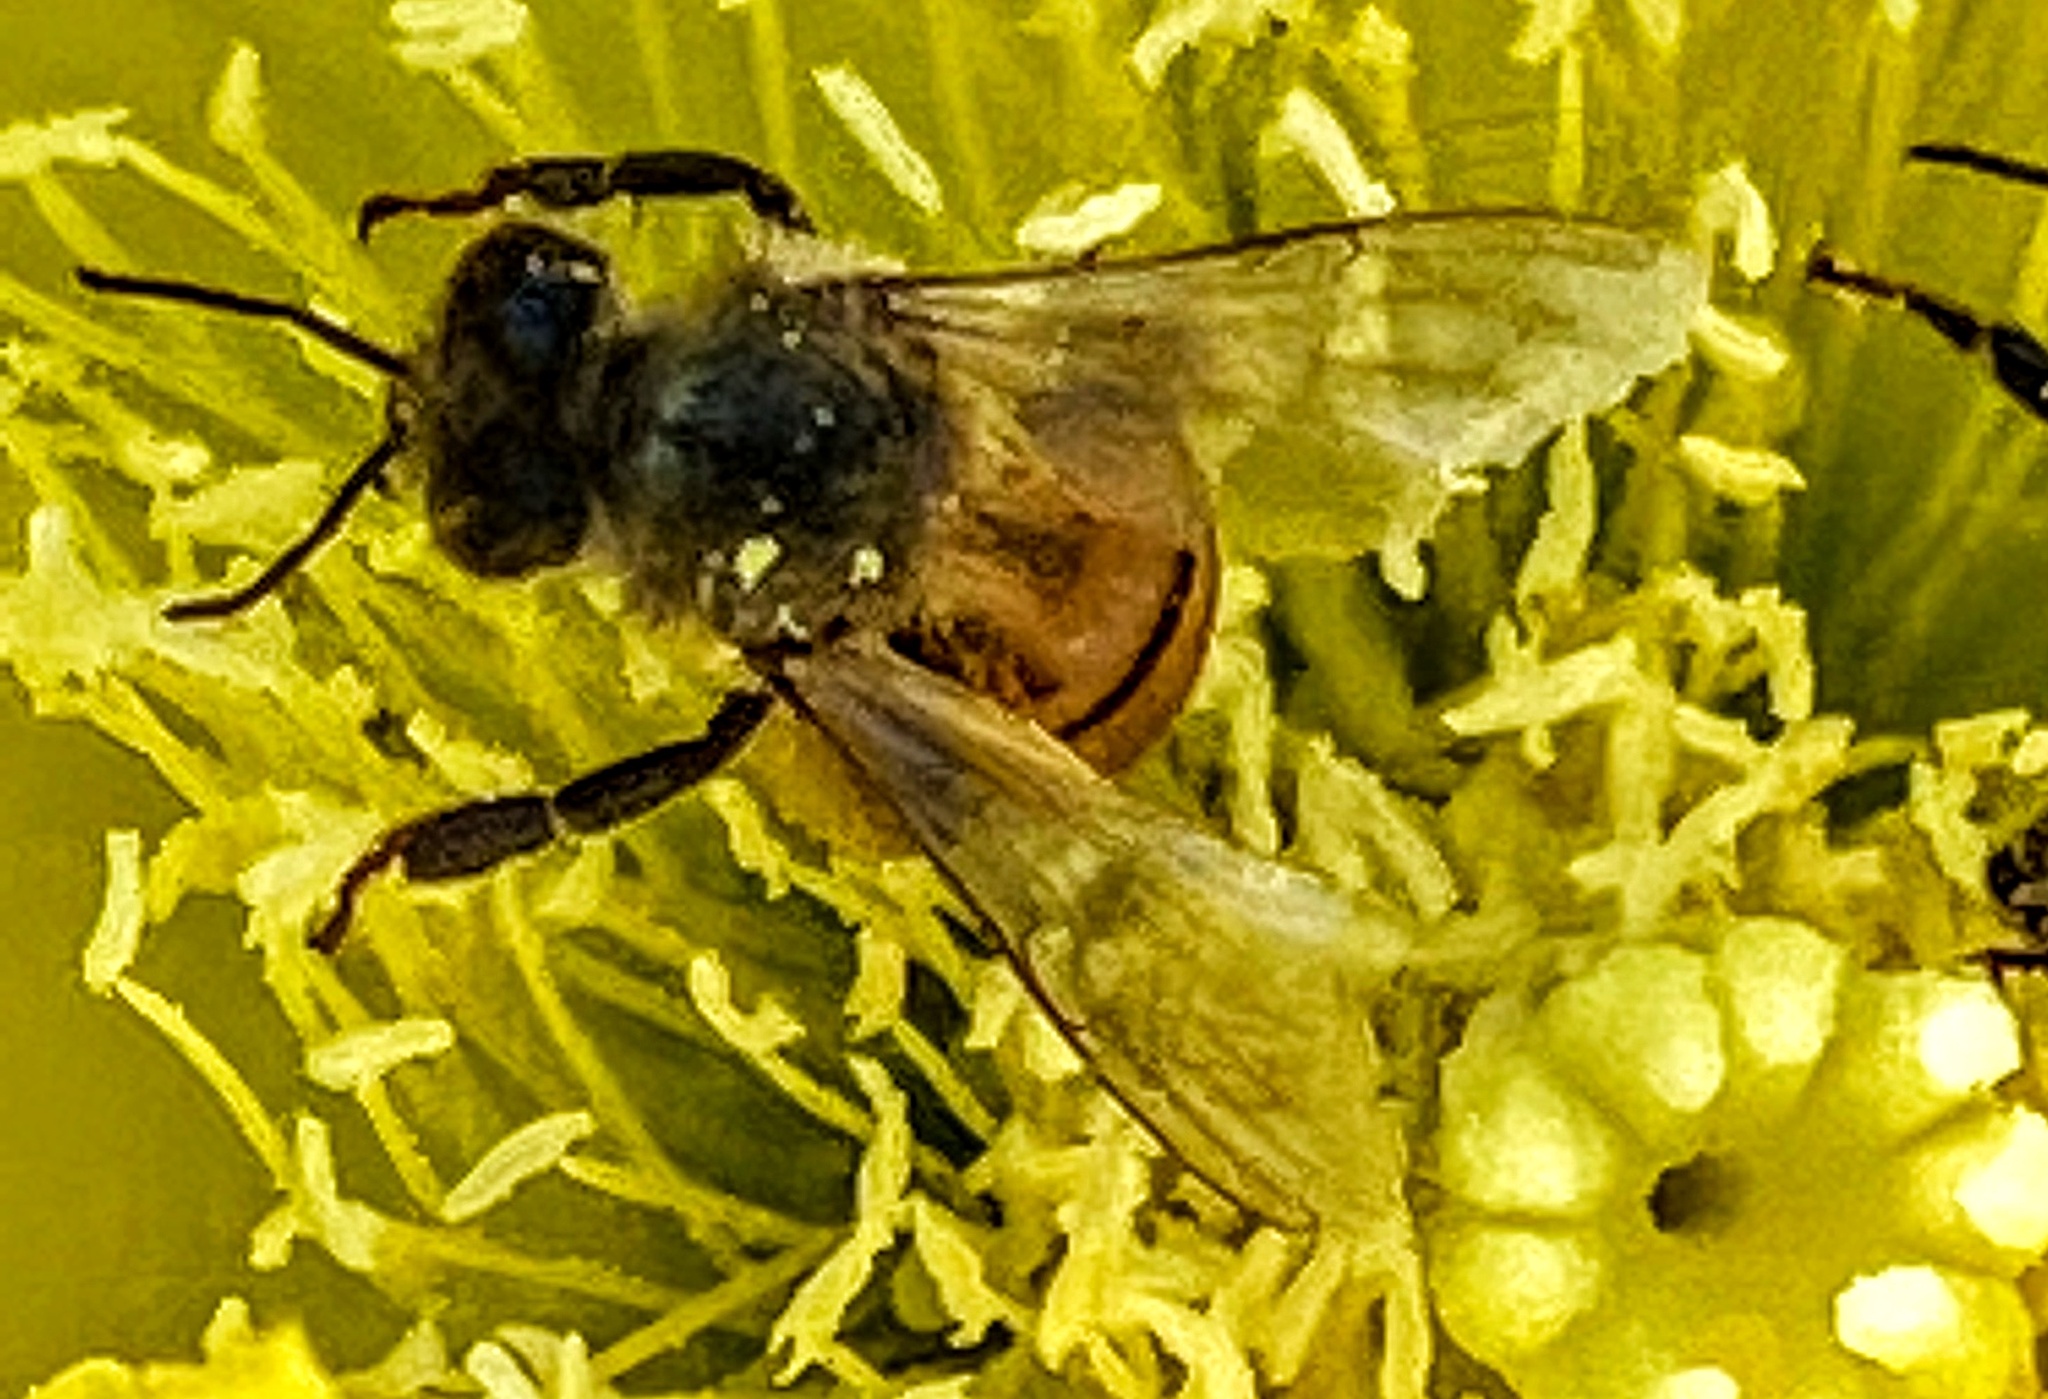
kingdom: Animalia
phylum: Arthropoda
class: Insecta
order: Hymenoptera
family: Apidae
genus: Apis
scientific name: Apis mellifera
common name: Honey bee
